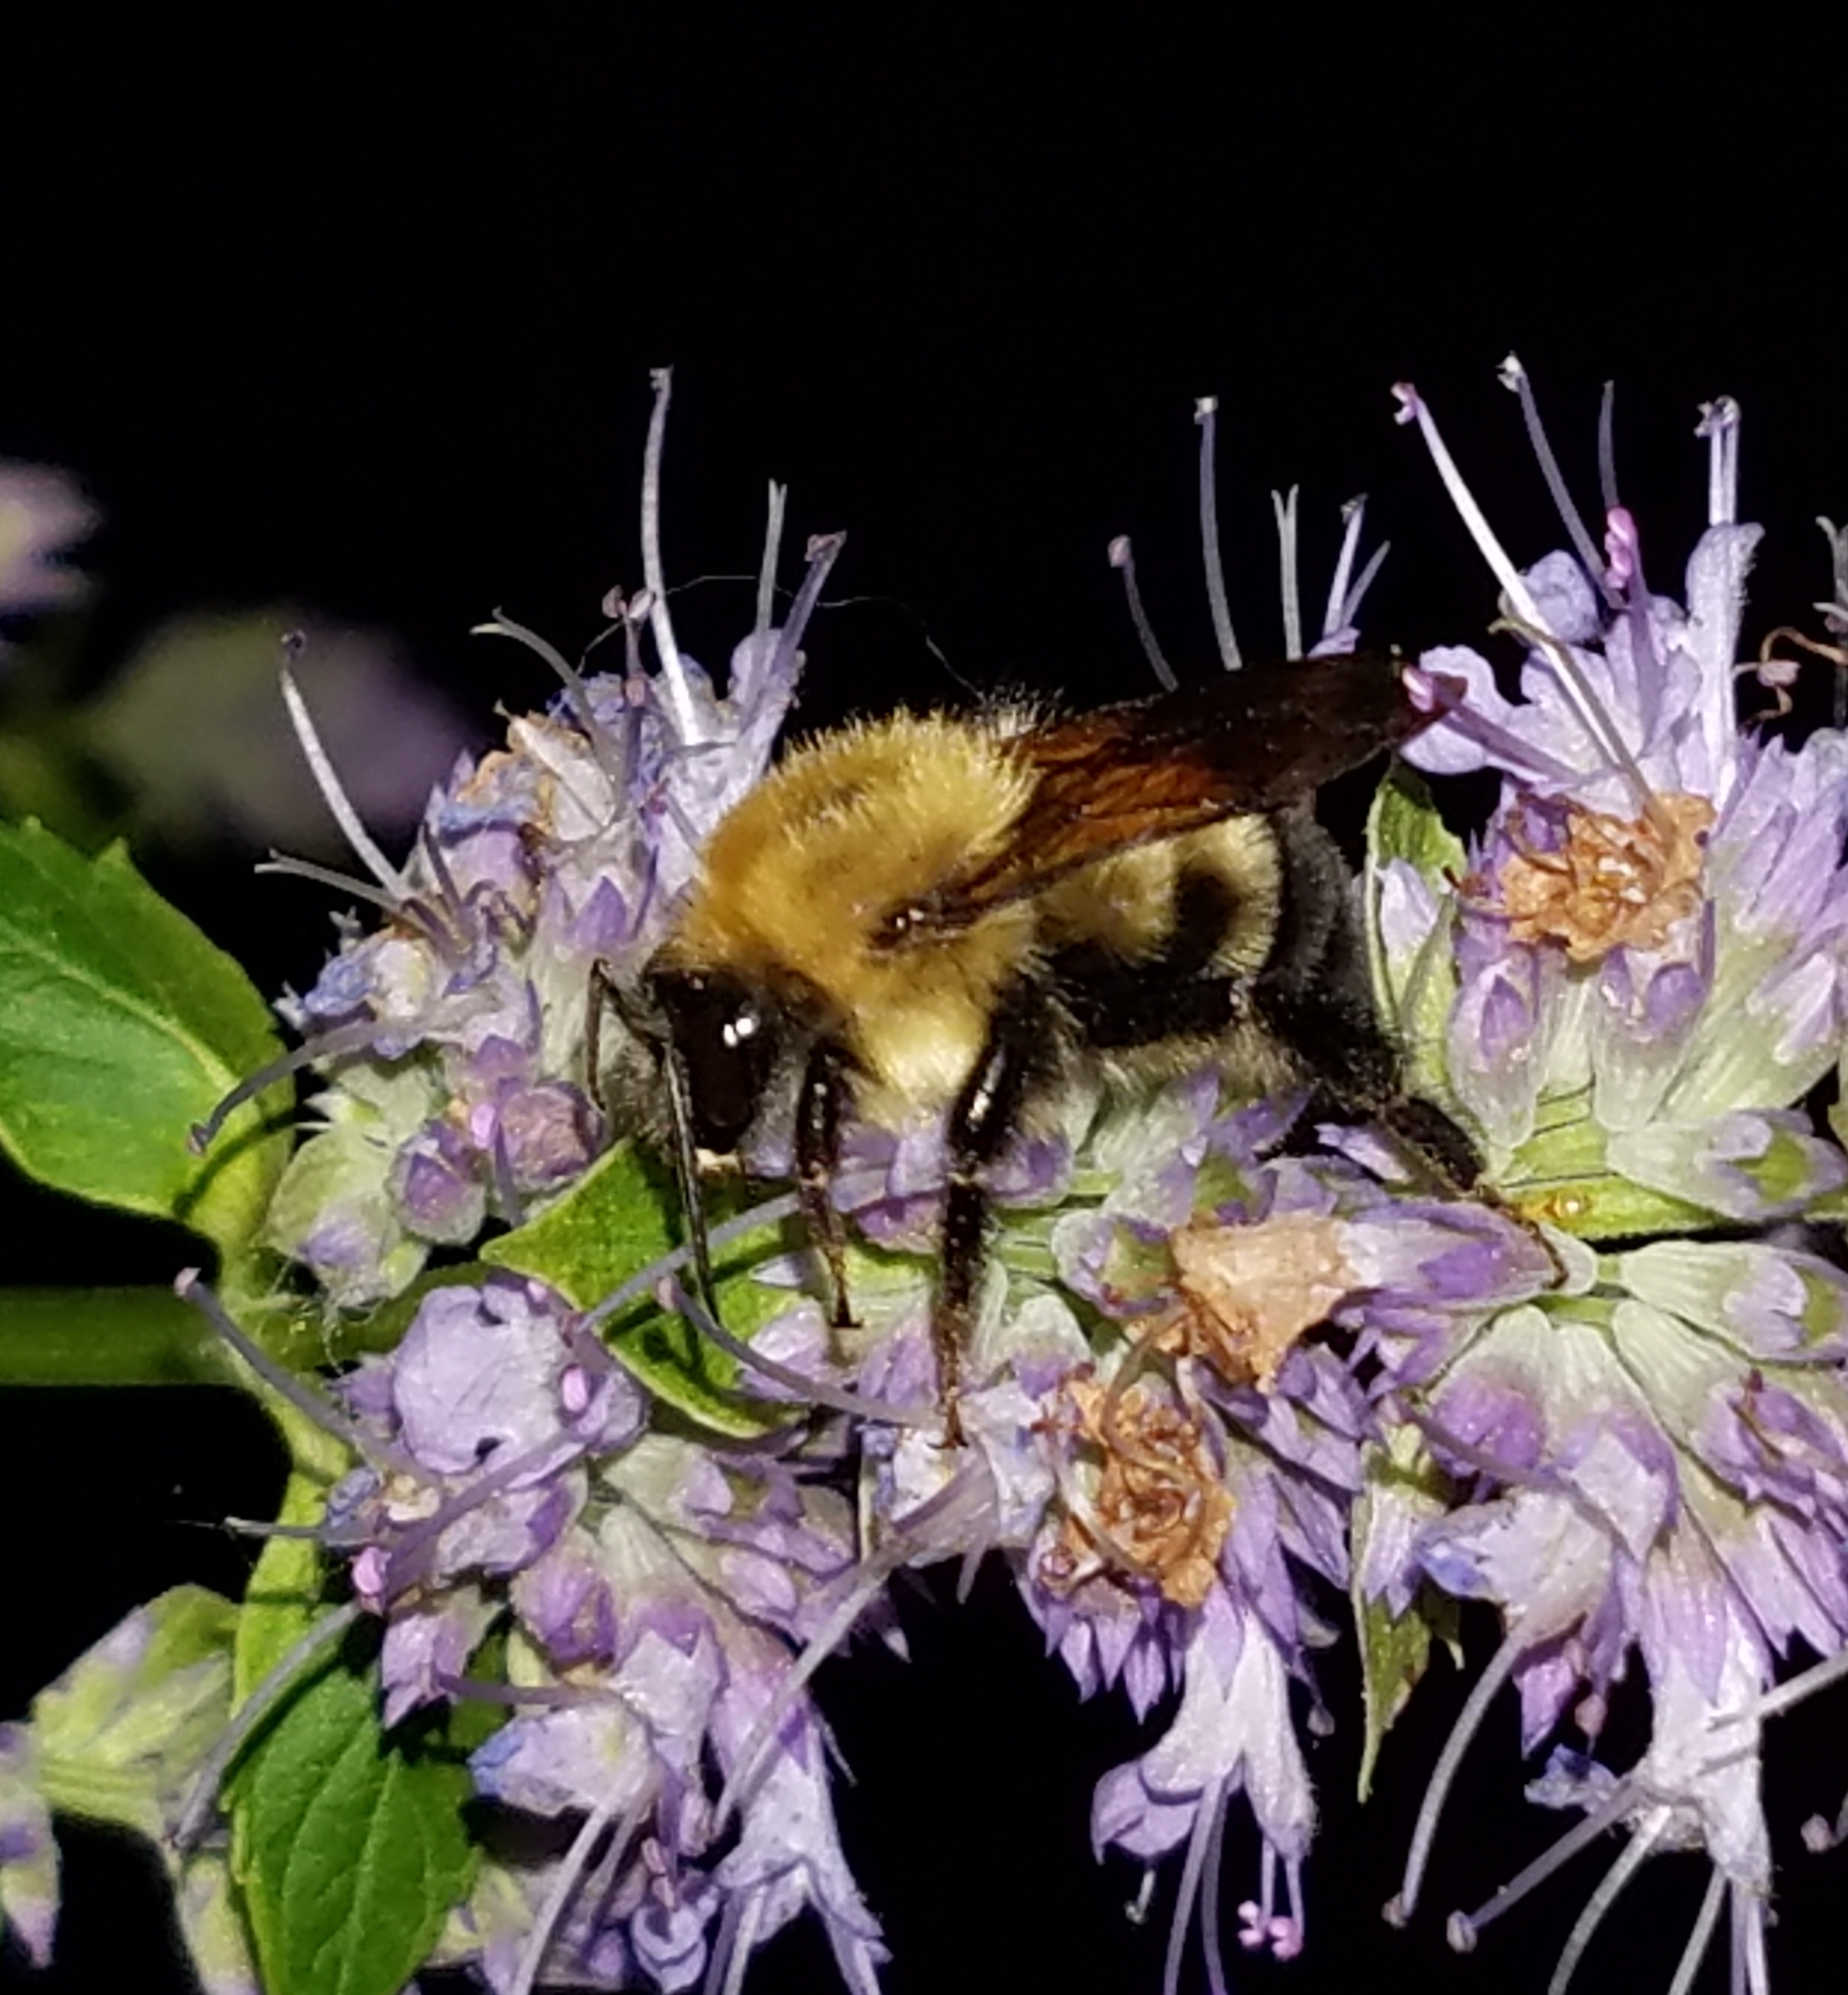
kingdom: Animalia
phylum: Arthropoda
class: Insecta
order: Hymenoptera
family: Apidae
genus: Bombus
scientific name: Bombus bimaculatus
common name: Two-spotted bumble bee
